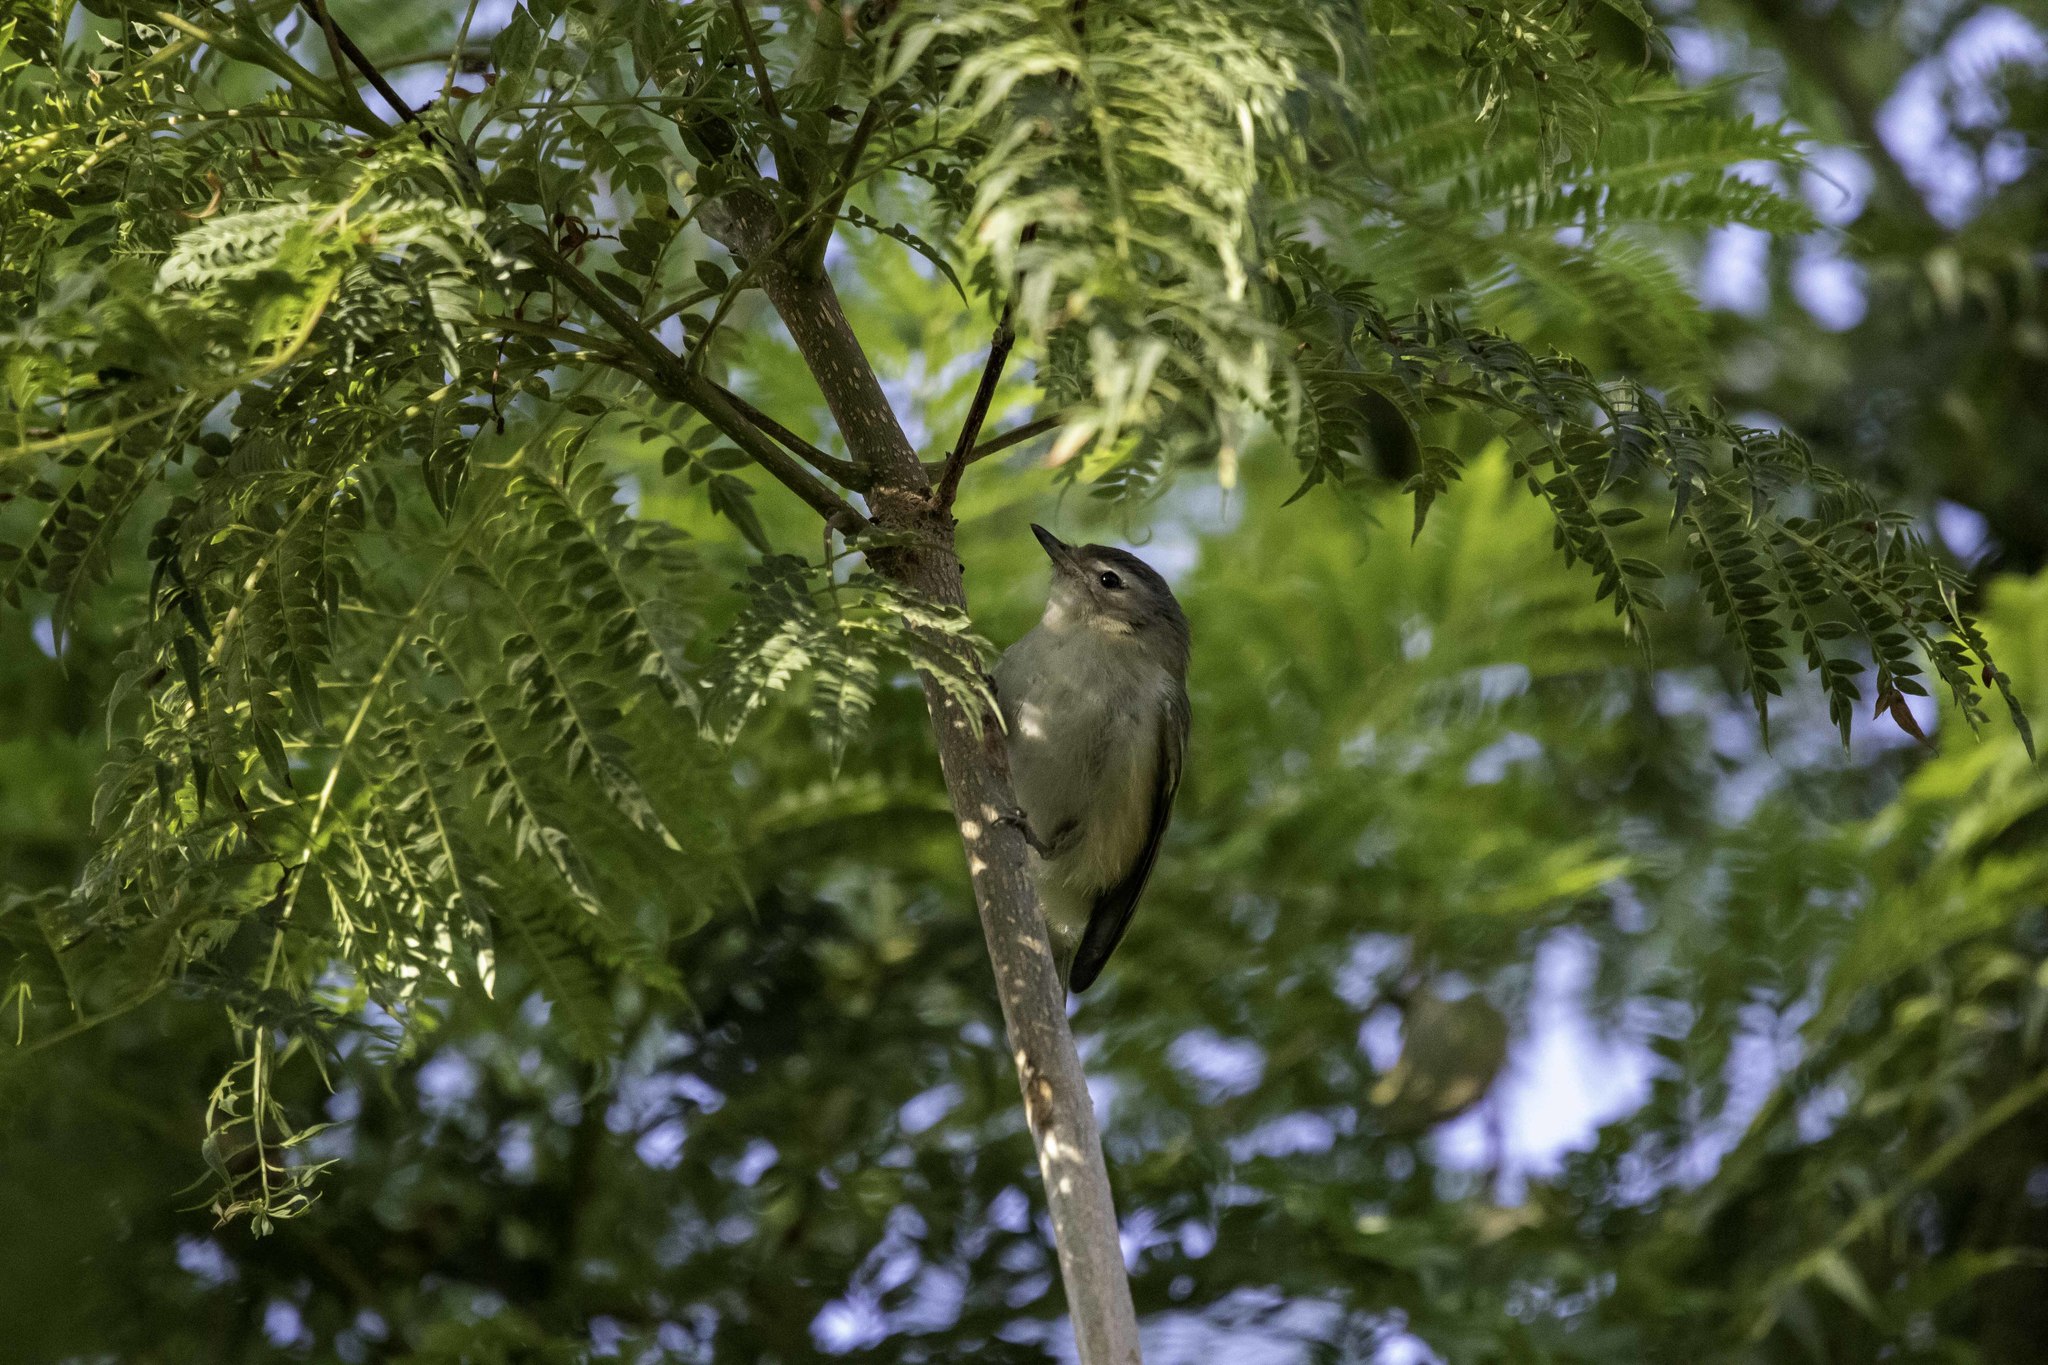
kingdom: Animalia
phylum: Chordata
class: Aves
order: Passeriformes
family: Vireonidae
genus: Vireo
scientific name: Vireo gilvus
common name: Warbling vireo
